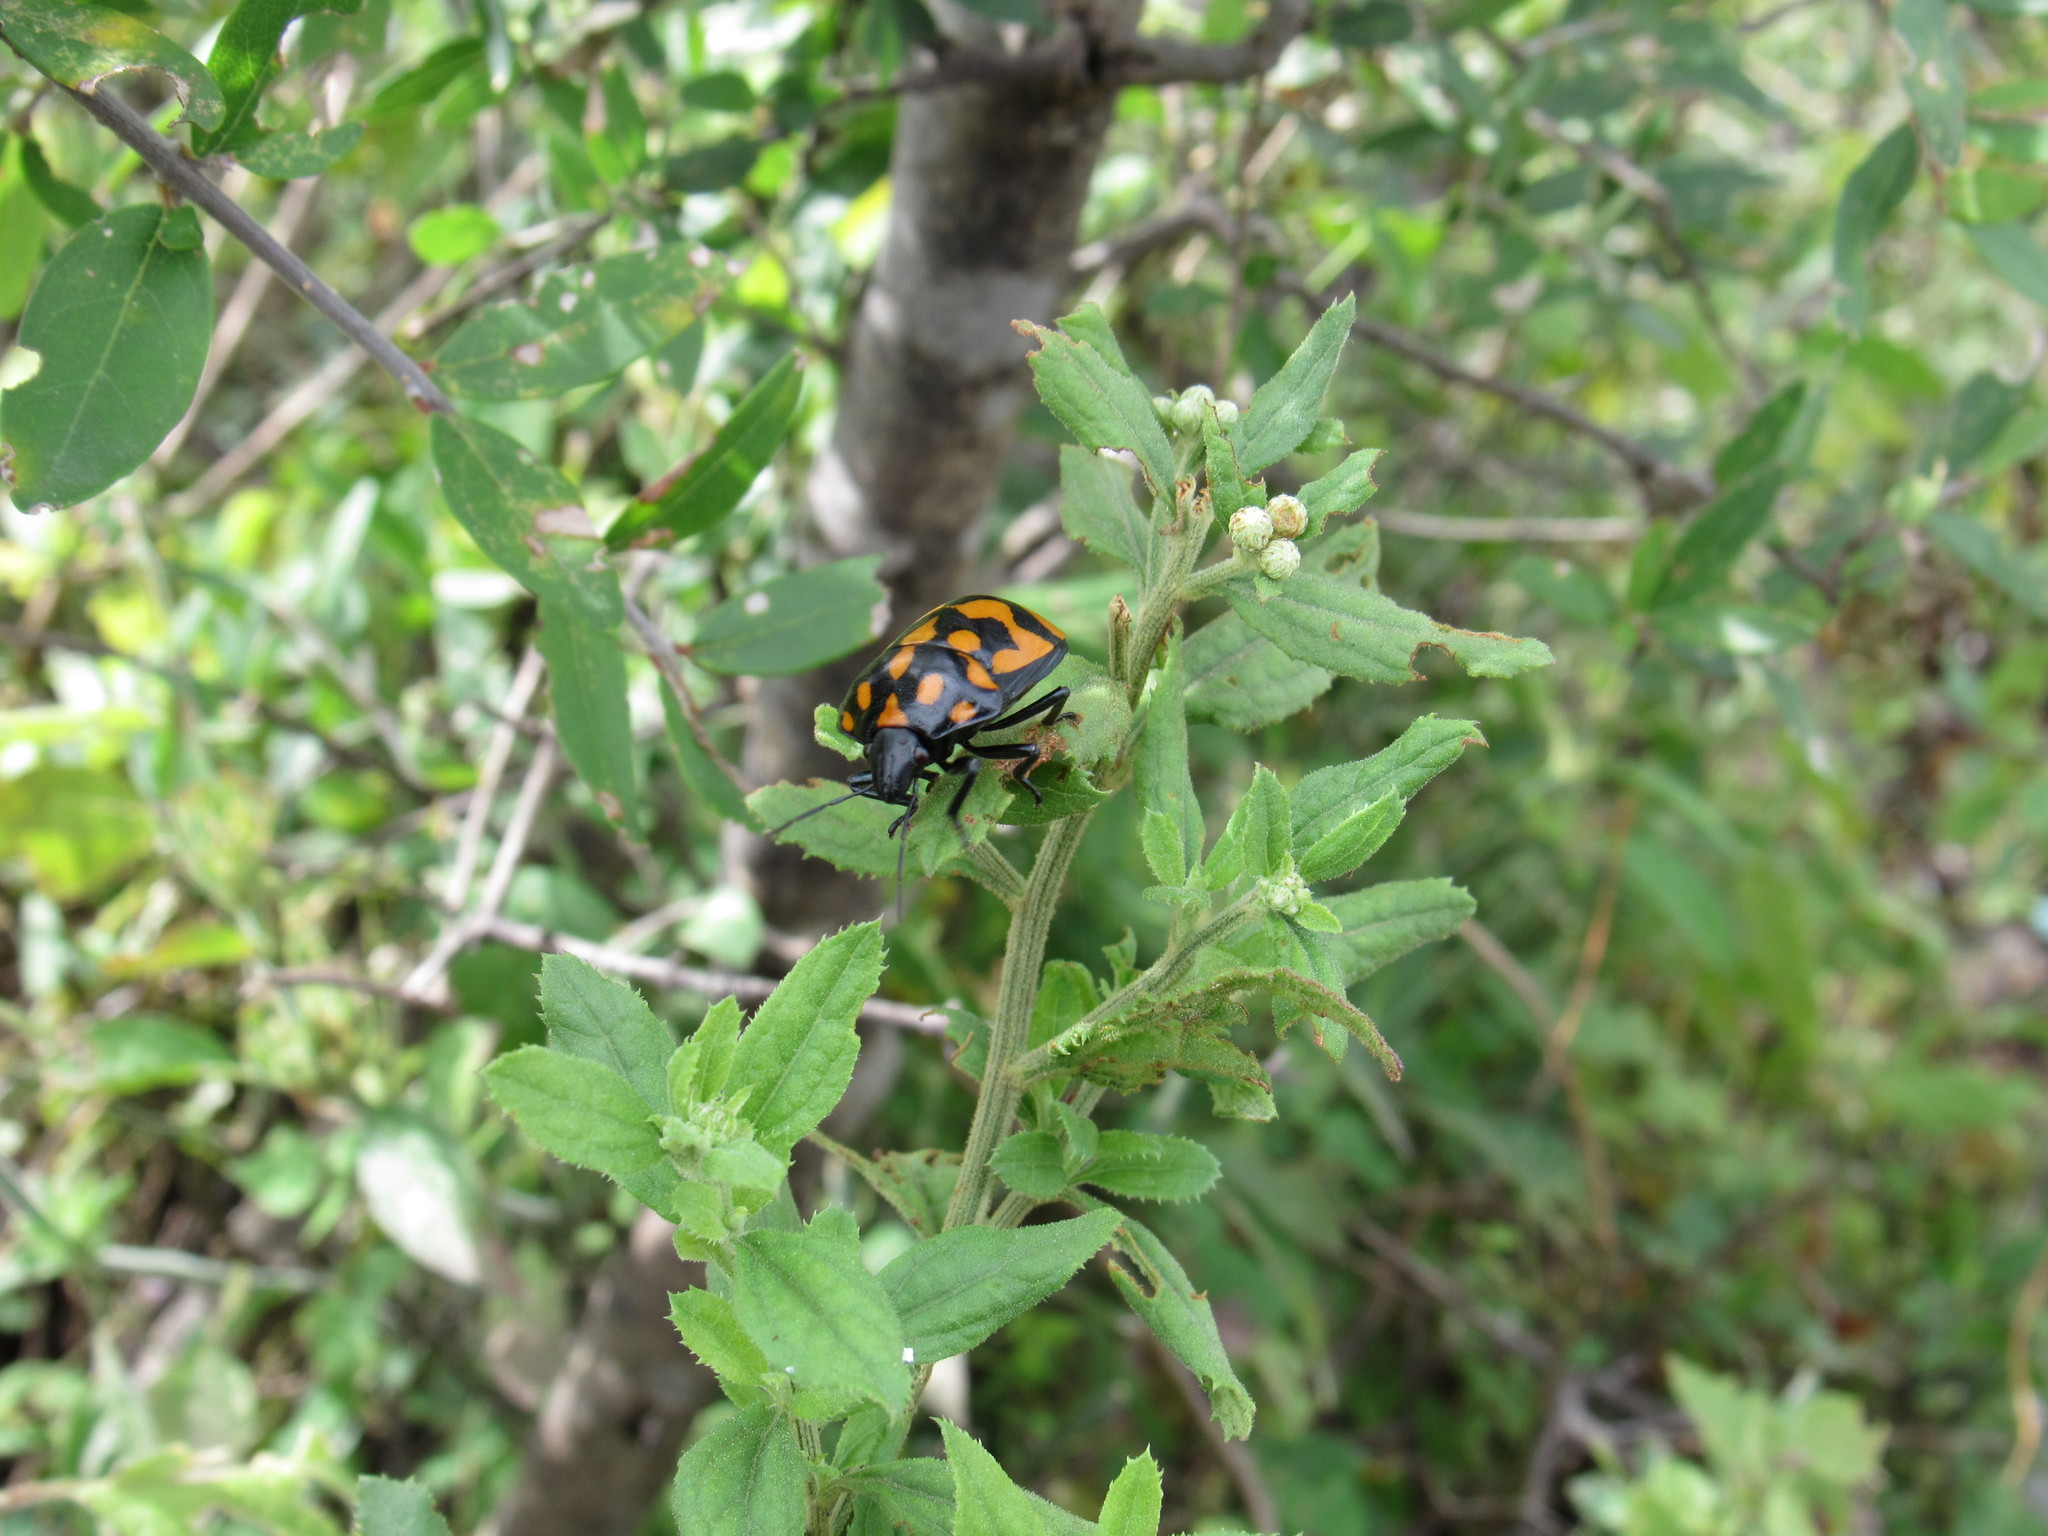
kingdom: Animalia
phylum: Arthropoda
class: Insecta
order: Hemiptera
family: Scutelleridae
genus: Pachycoris
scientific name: Pachycoris klugii
